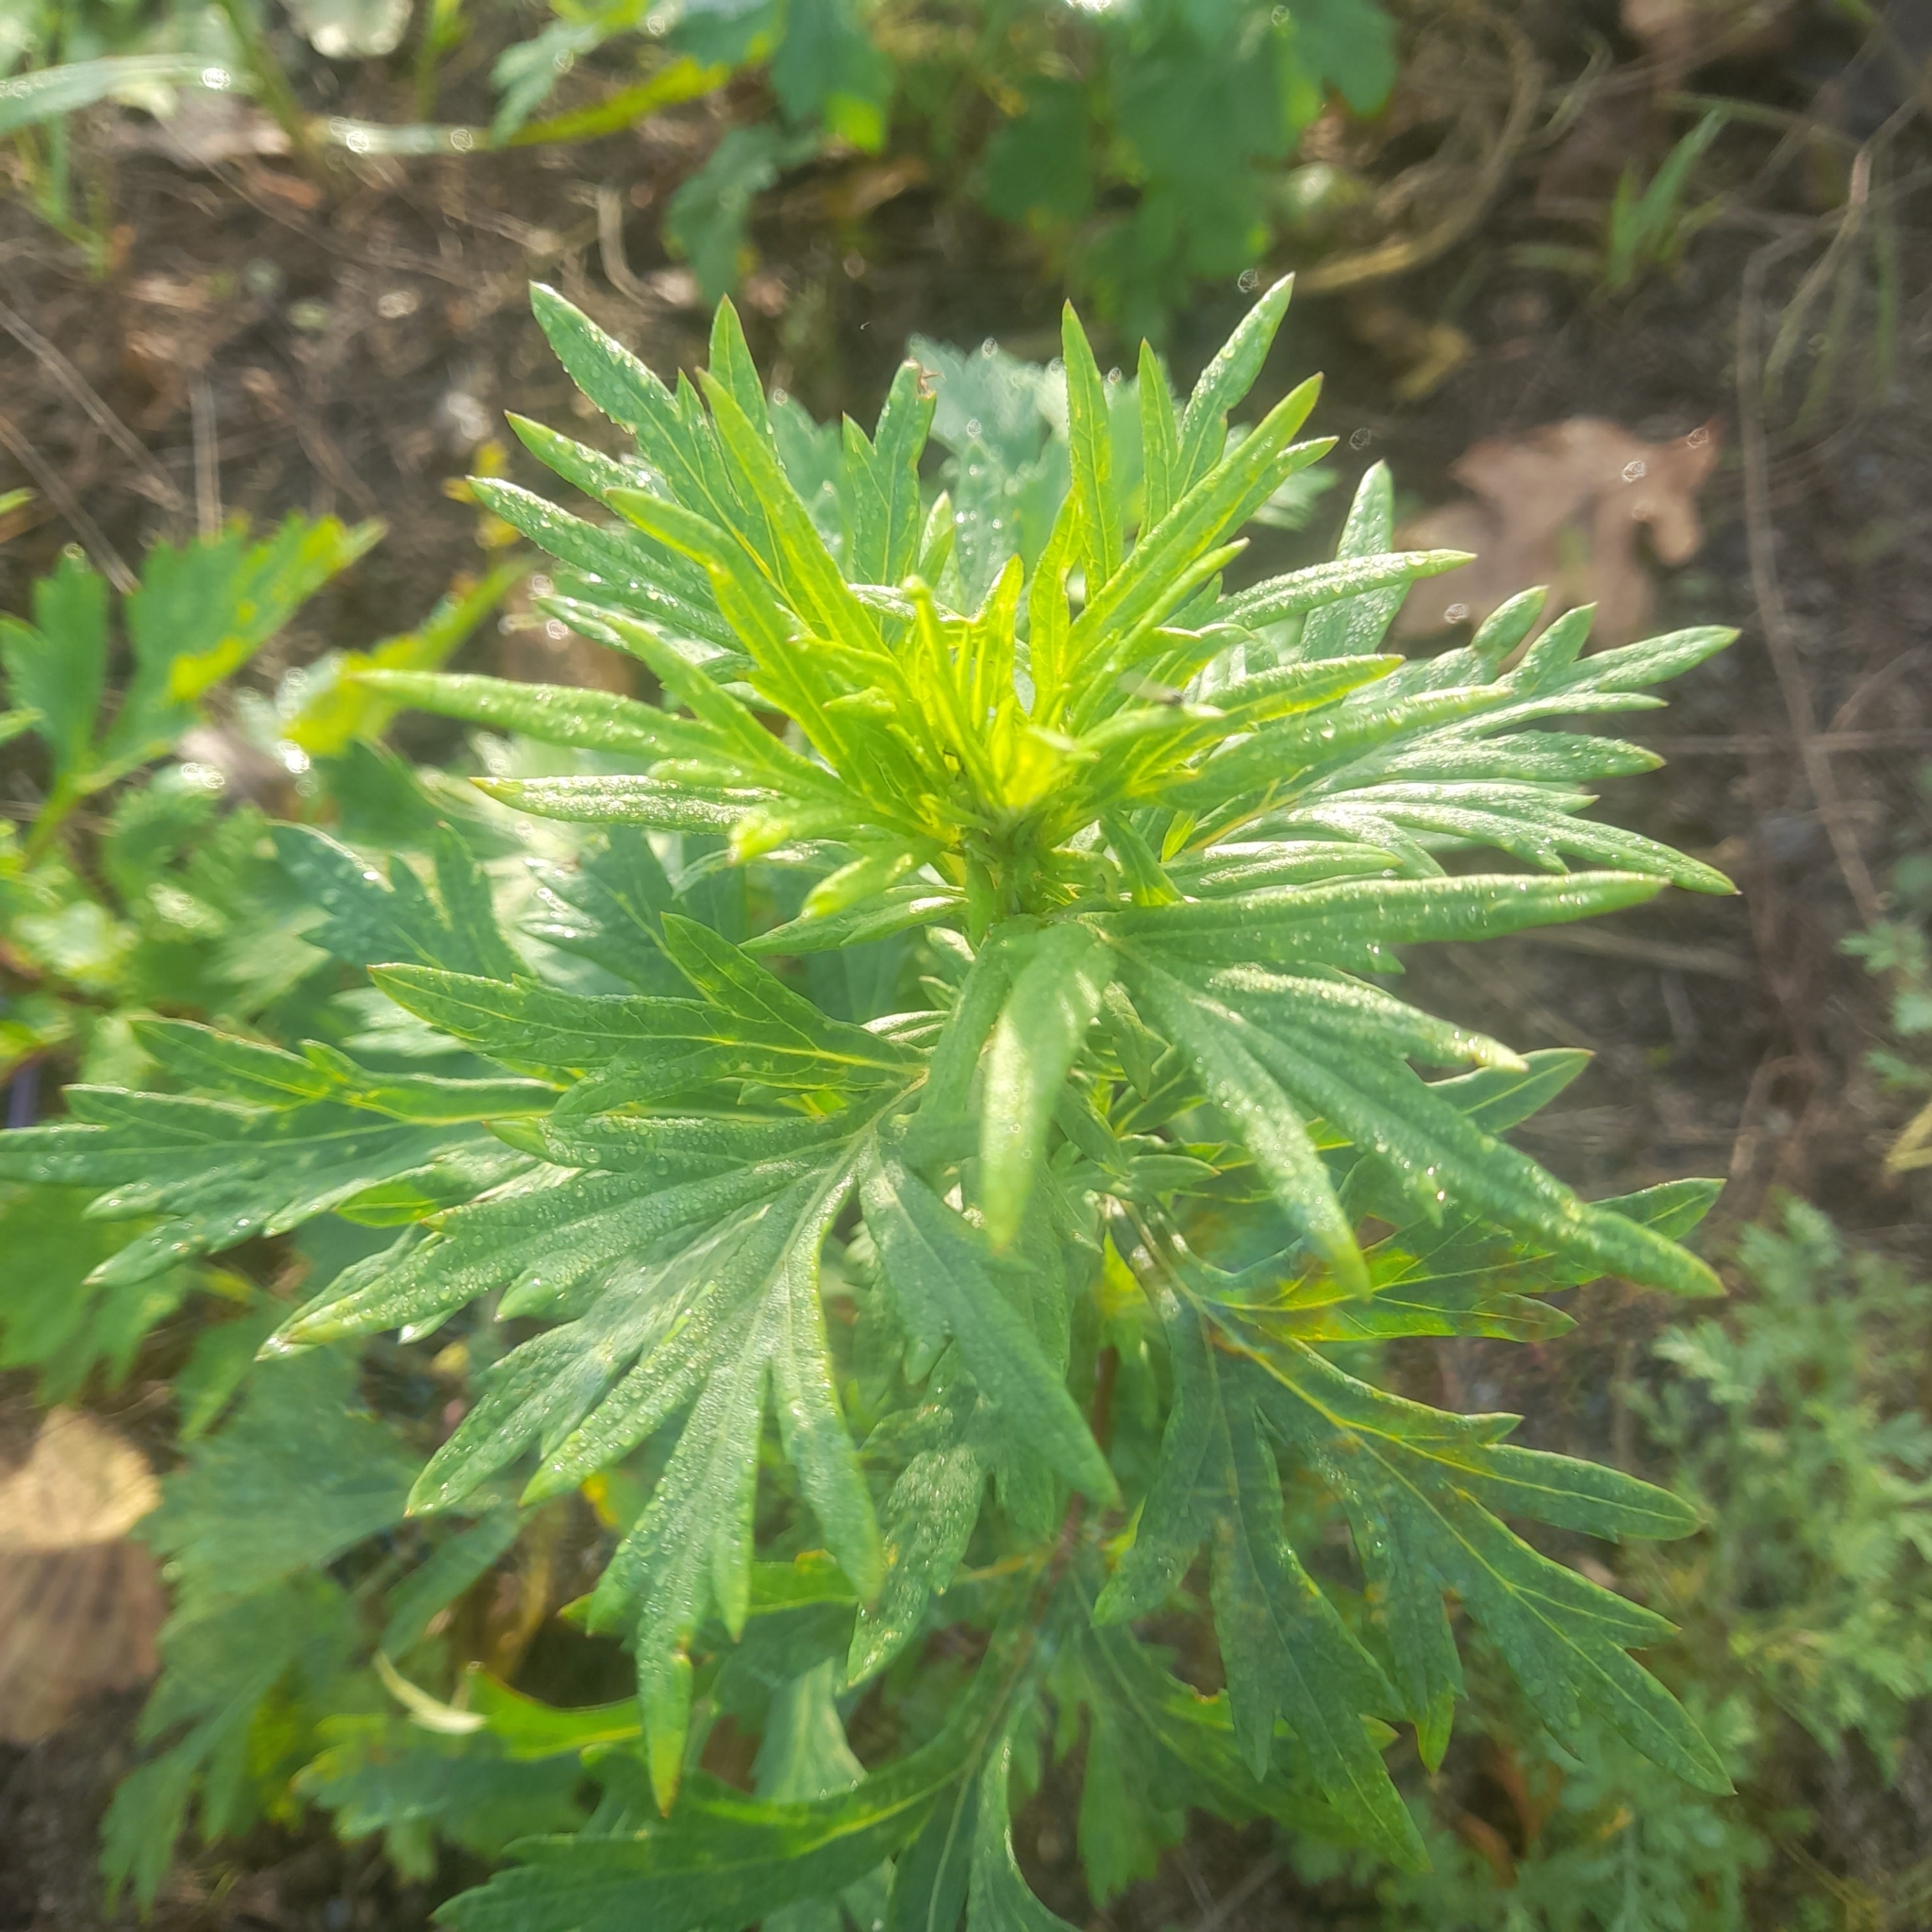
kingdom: Plantae
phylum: Tracheophyta
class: Magnoliopsida
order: Asterales
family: Asteraceae
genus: Artemisia
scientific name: Artemisia vulgaris
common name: Mugwort
